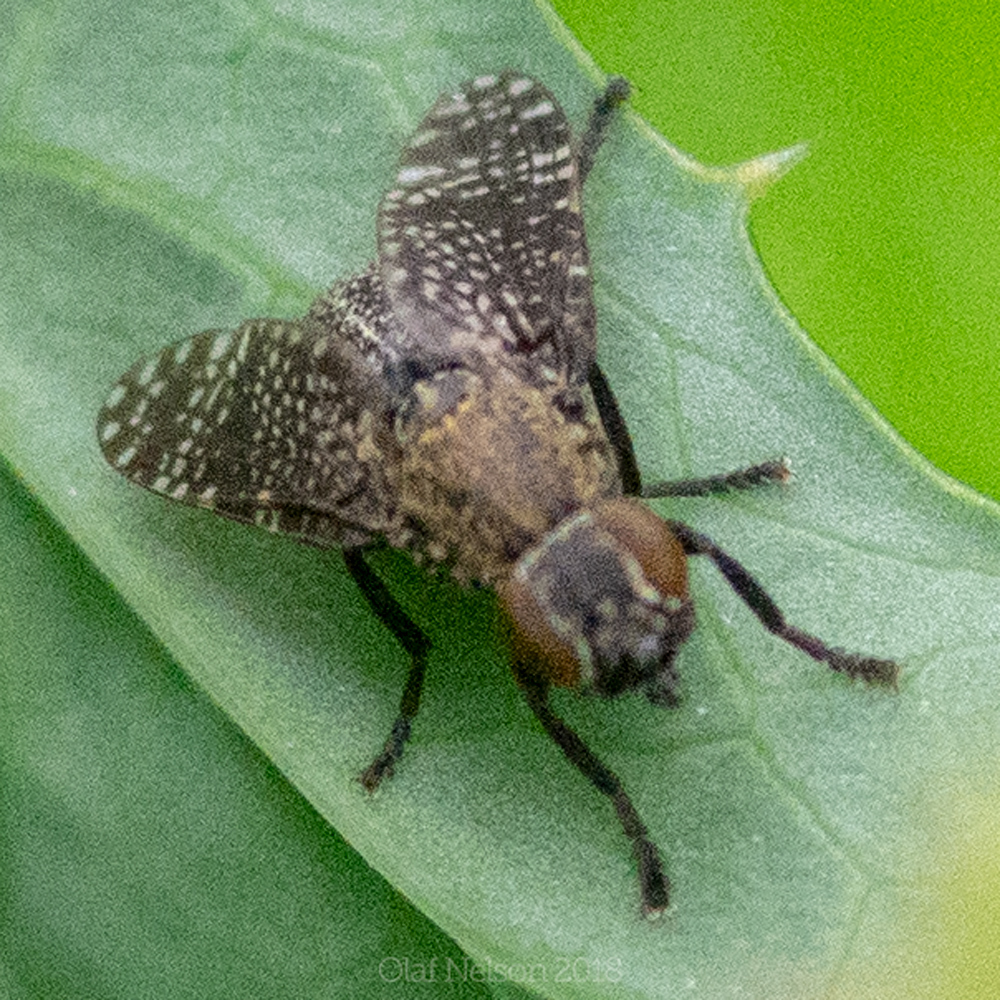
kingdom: Animalia
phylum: Arthropoda
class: Insecta
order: Diptera
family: Platystomatidae
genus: Platystoma
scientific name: Platystoma seminationis
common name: Fly
